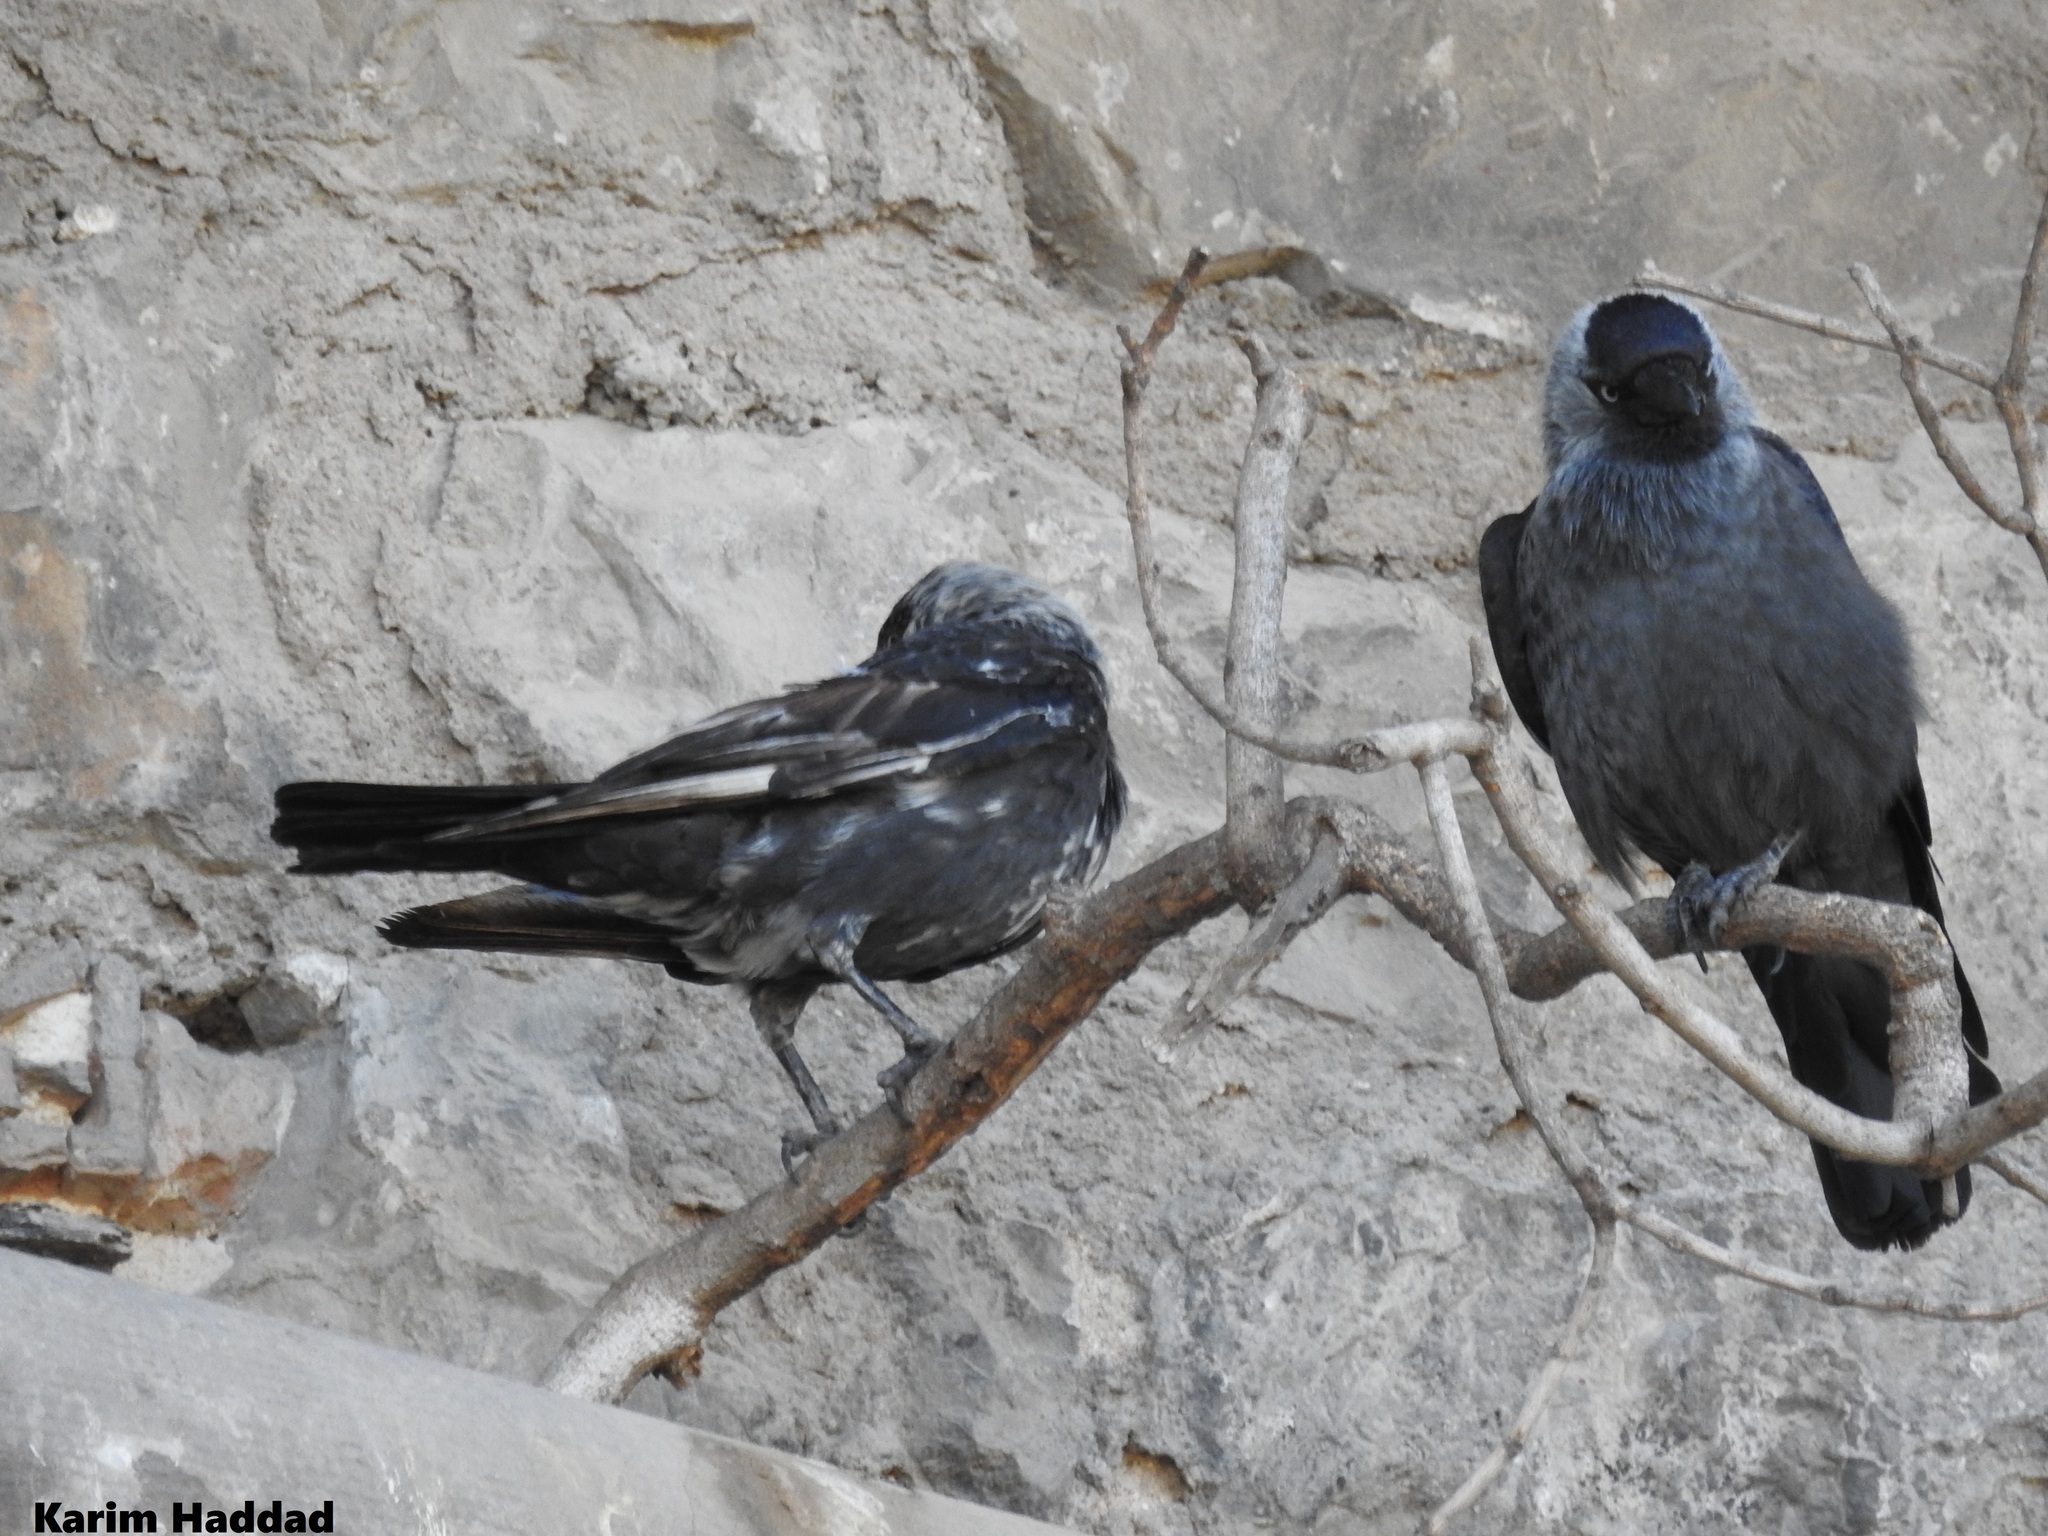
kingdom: Animalia
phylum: Chordata
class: Aves
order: Passeriformes
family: Corvidae
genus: Coloeus
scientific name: Coloeus monedula
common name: Western jackdaw
